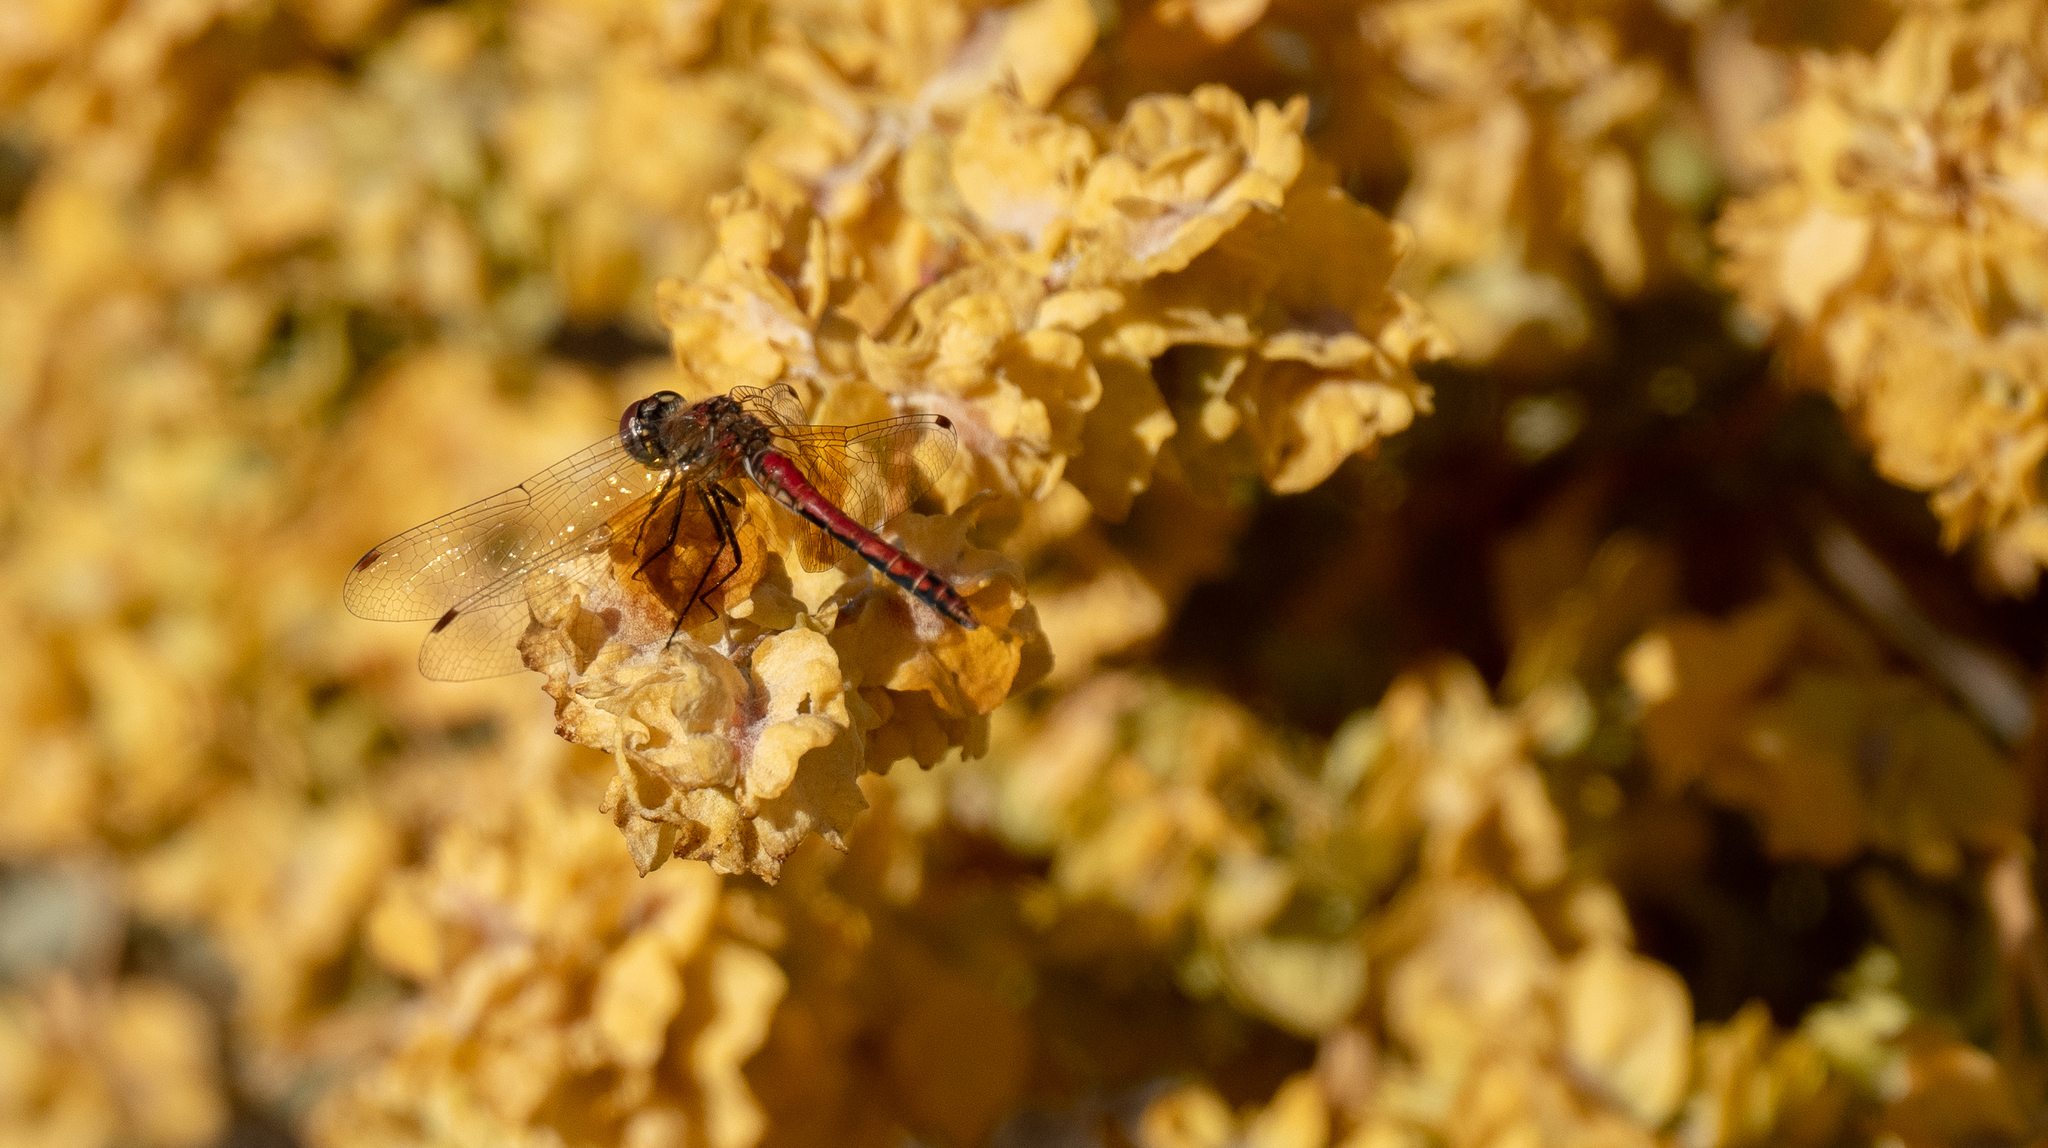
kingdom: Animalia
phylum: Arthropoda
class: Insecta
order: Odonata
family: Libellulidae
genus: Sympetrum
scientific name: Sympetrum semicinctum
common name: Band-winged meadowhawk
